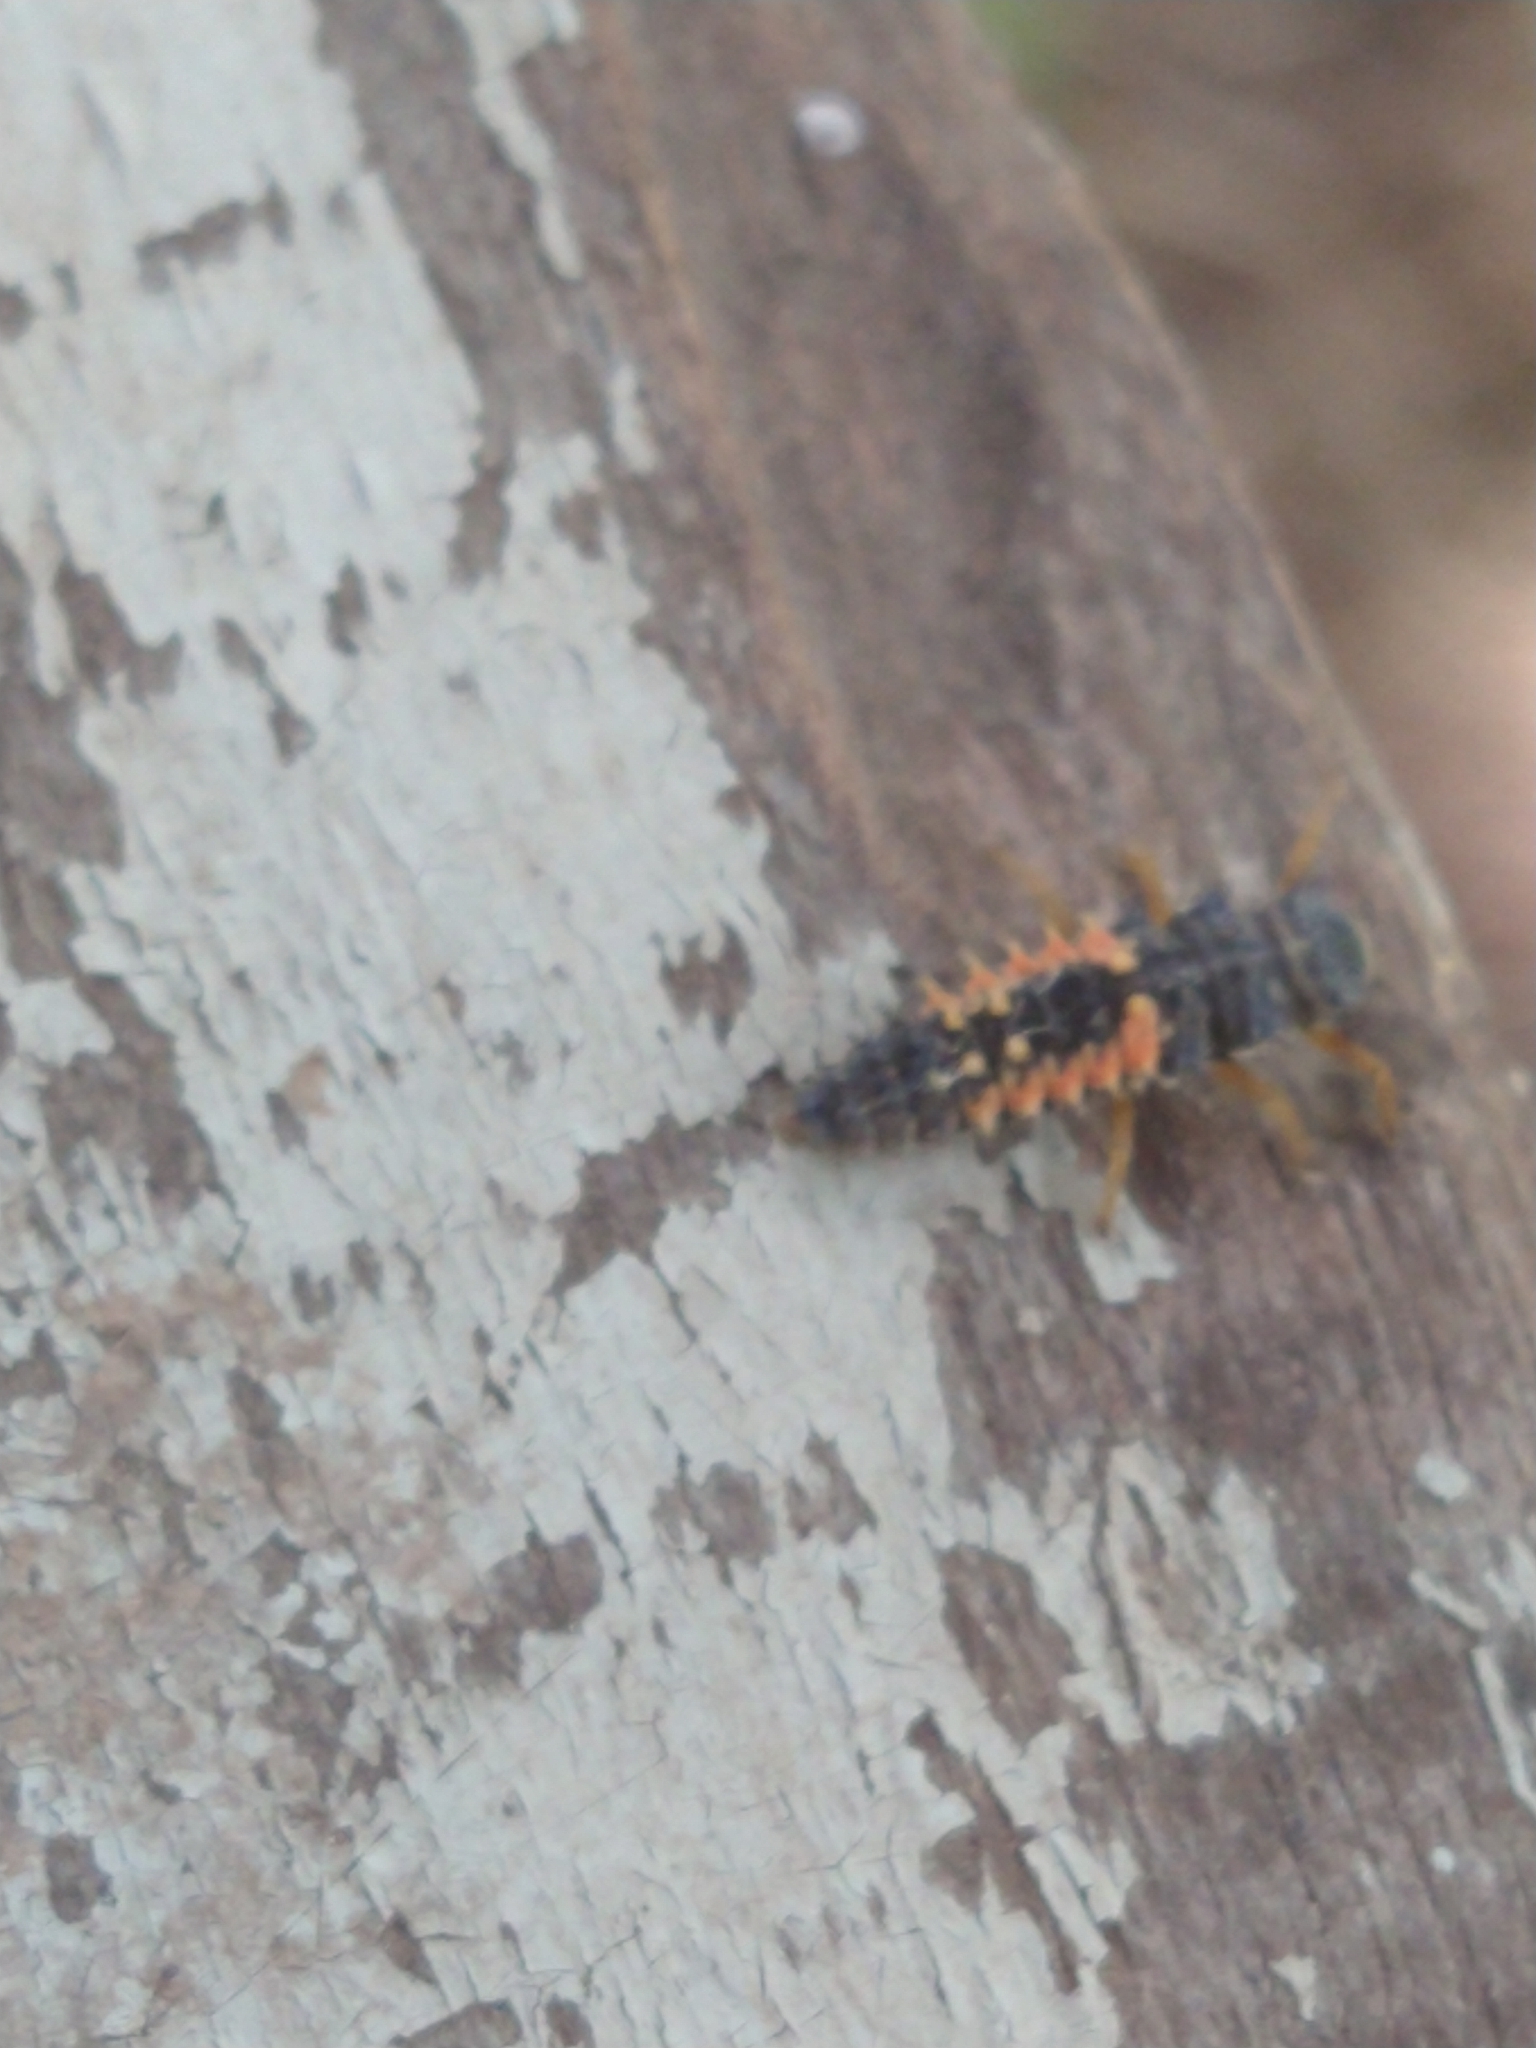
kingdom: Animalia
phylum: Arthropoda
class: Insecta
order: Coleoptera
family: Coccinellidae
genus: Harmonia
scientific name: Harmonia axyridis
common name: Harlequin ladybird
